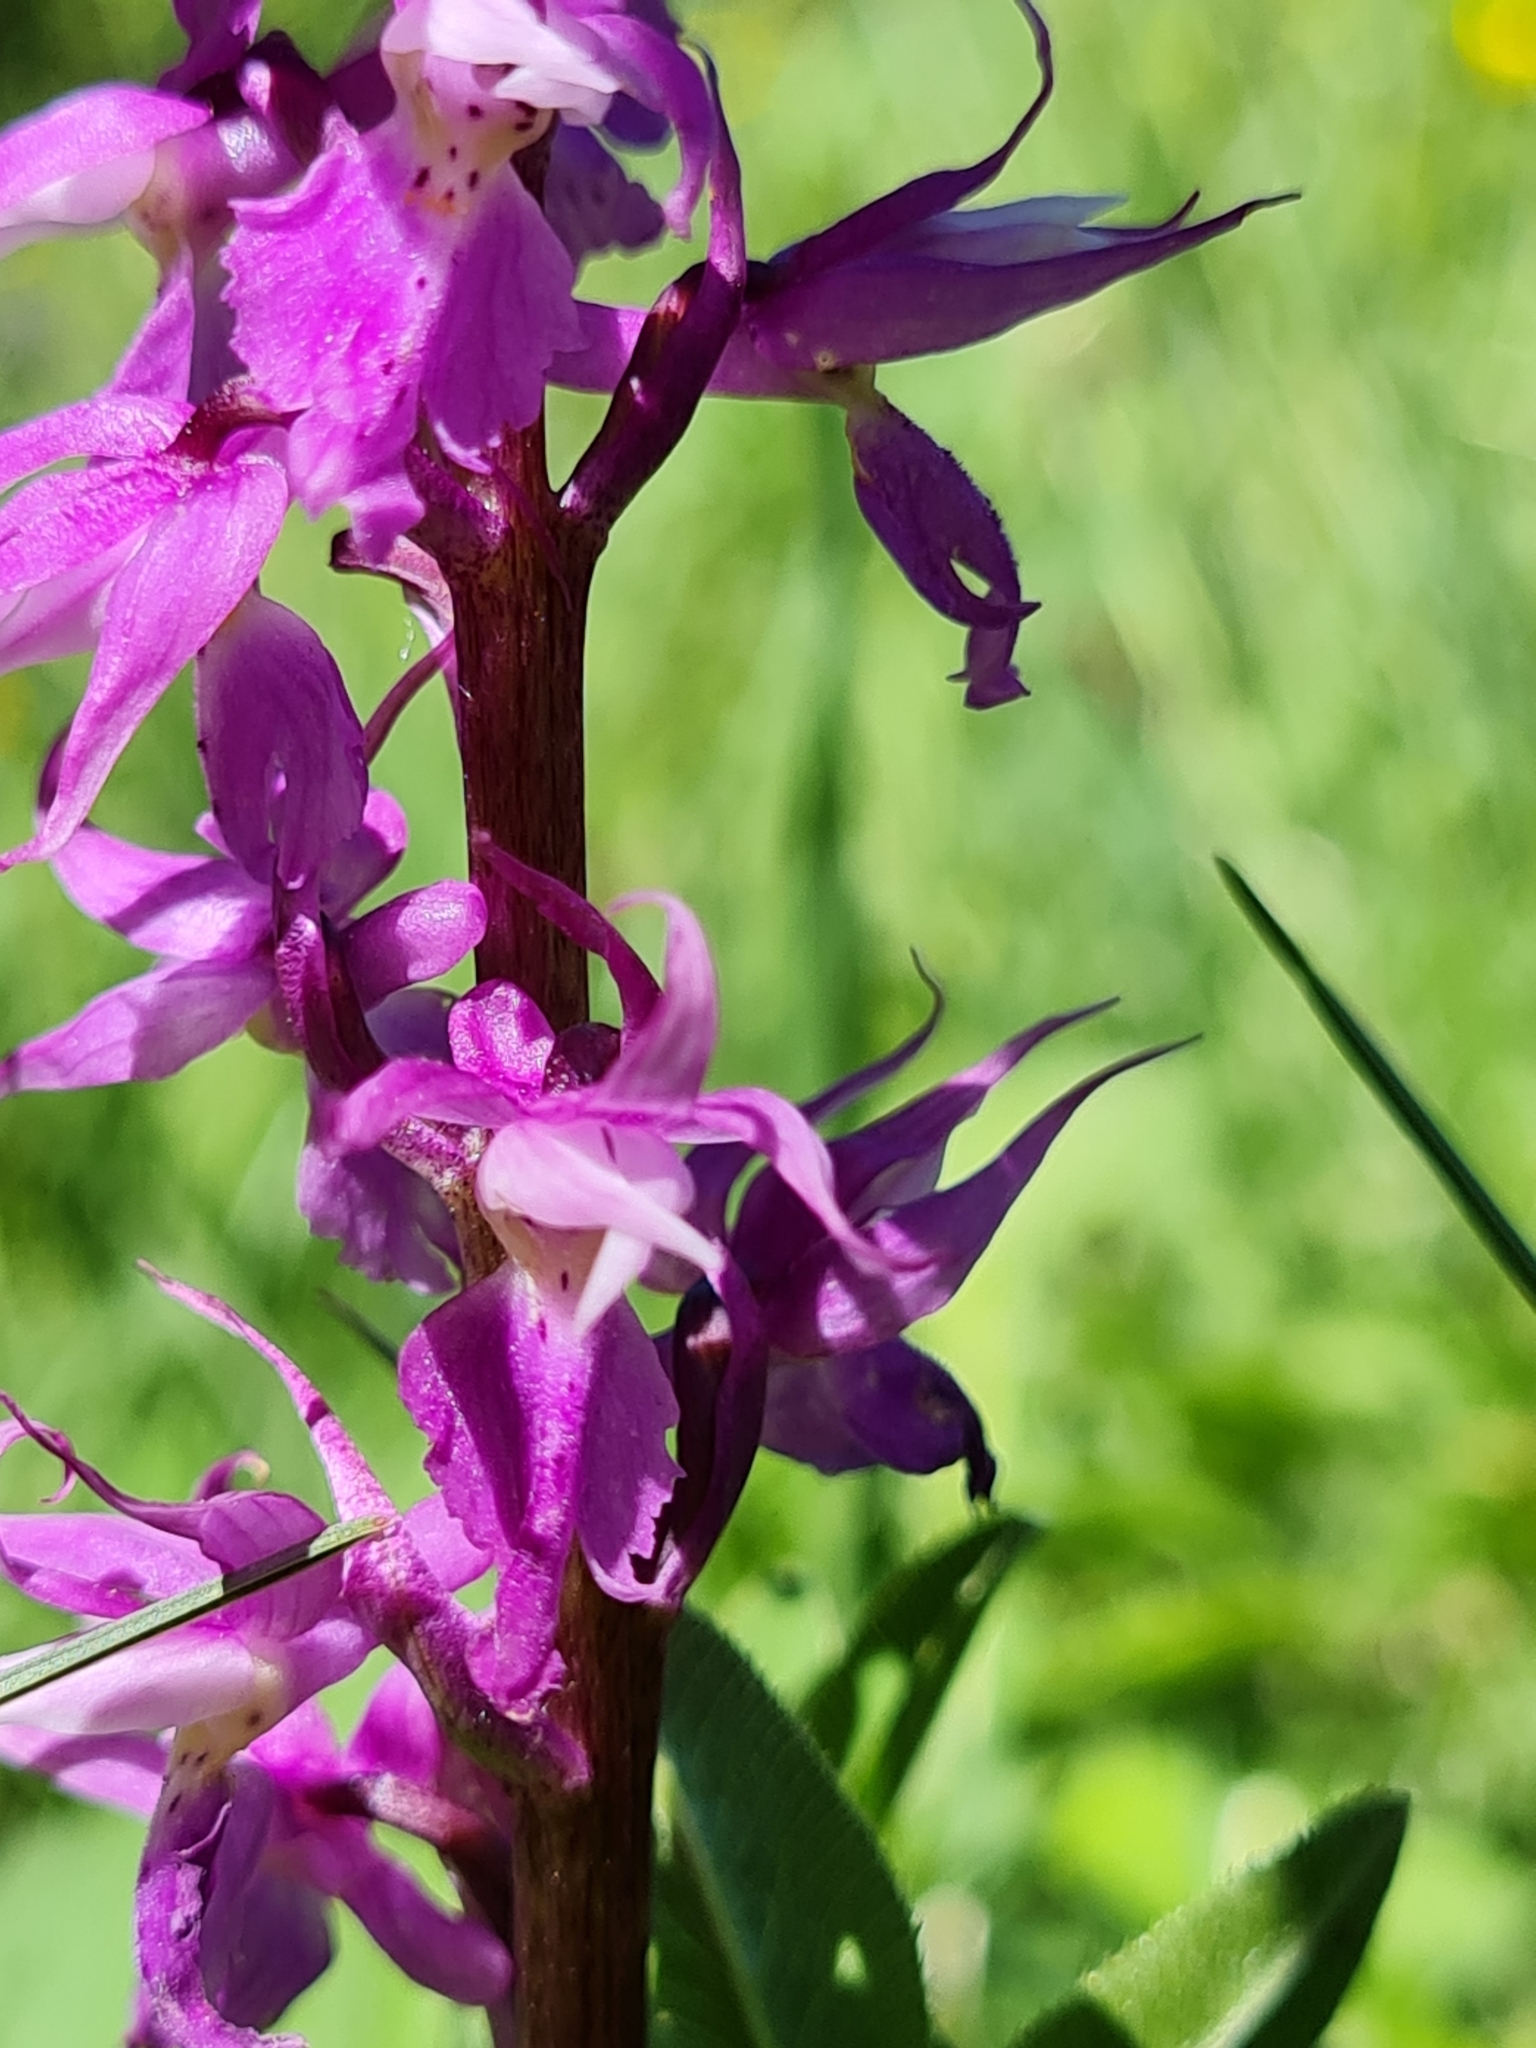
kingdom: Plantae
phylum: Tracheophyta
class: Liliopsida
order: Asparagales
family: Orchidaceae
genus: Orchis
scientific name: Orchis mascula
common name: Early-purple orchid
